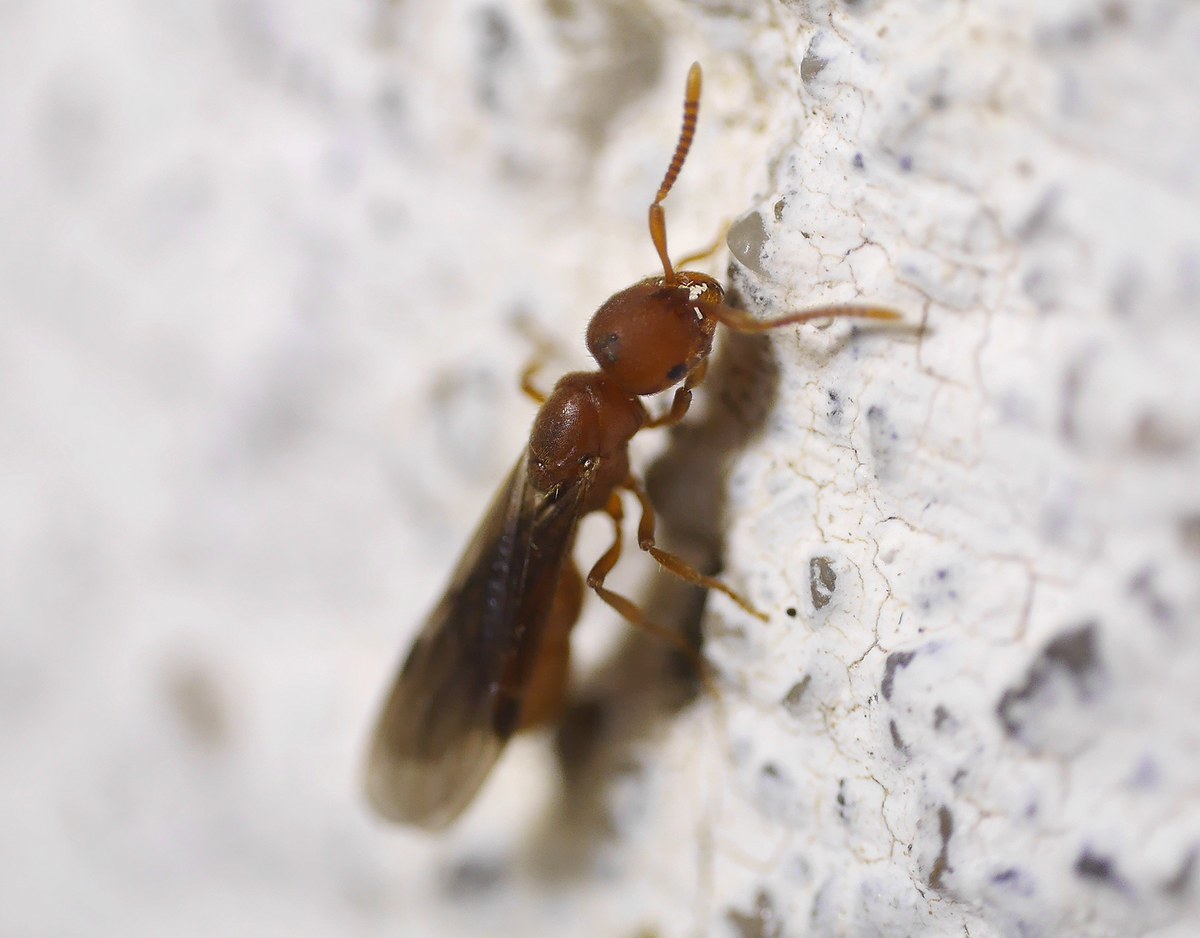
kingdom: Animalia
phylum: Arthropoda
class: Insecta
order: Hymenoptera
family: Formicidae
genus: Proceratium
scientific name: Proceratium melinum
